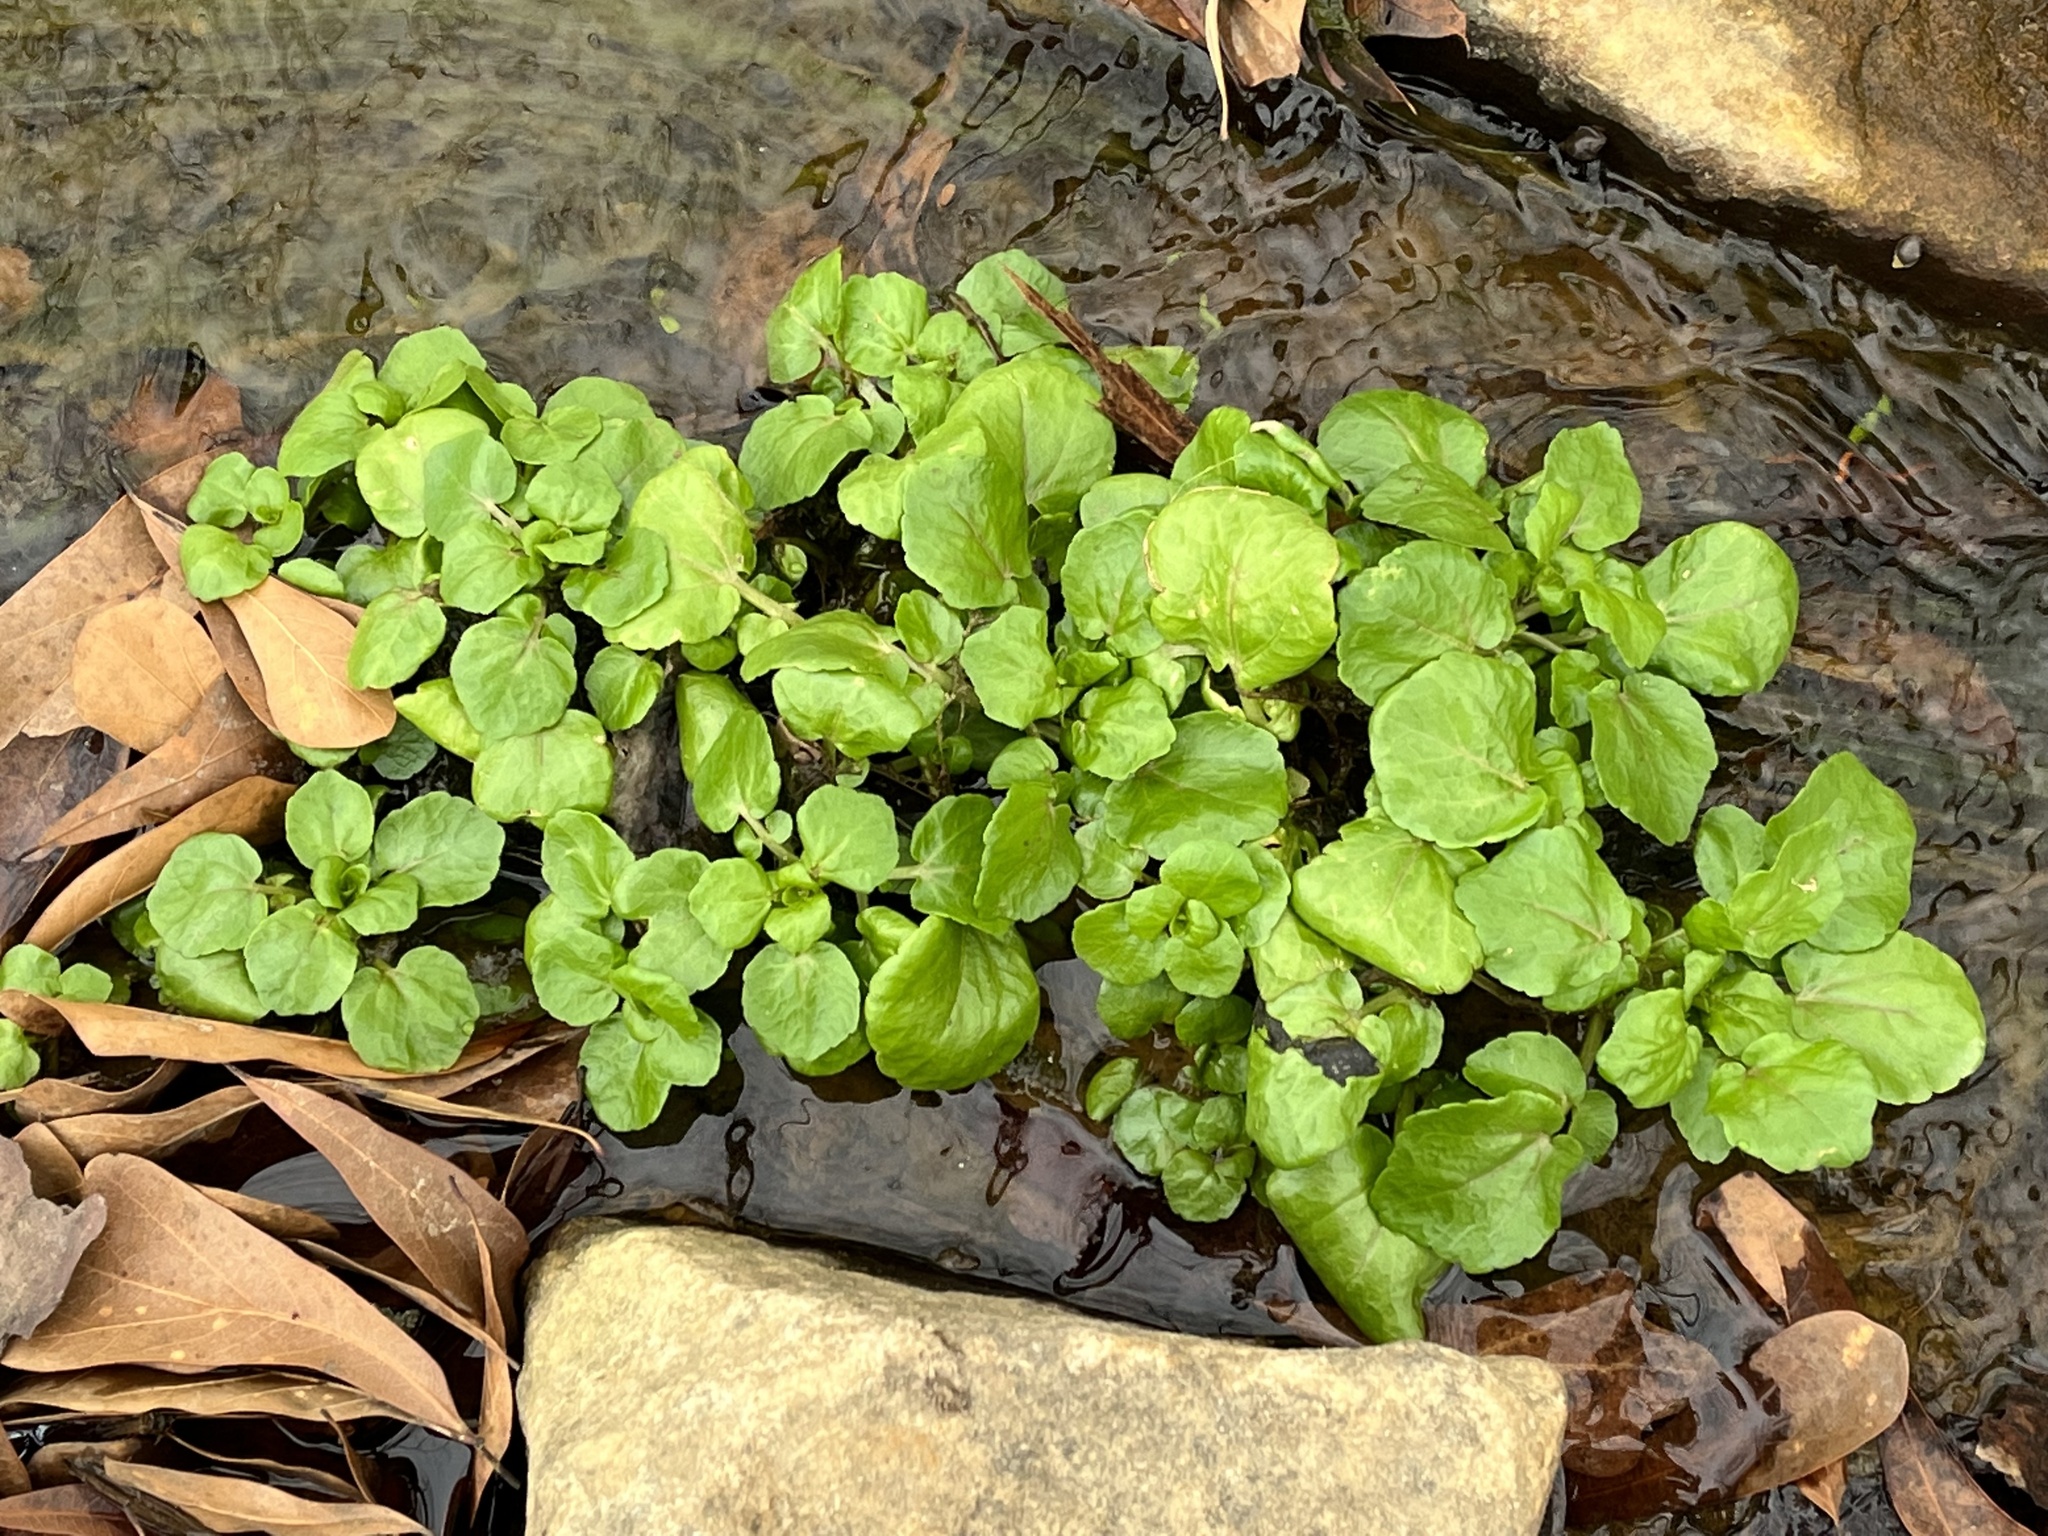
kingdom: Plantae
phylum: Tracheophyta
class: Magnoliopsida
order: Brassicales
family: Brassicaceae
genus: Nasturtium
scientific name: Nasturtium officinale
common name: Watercress
